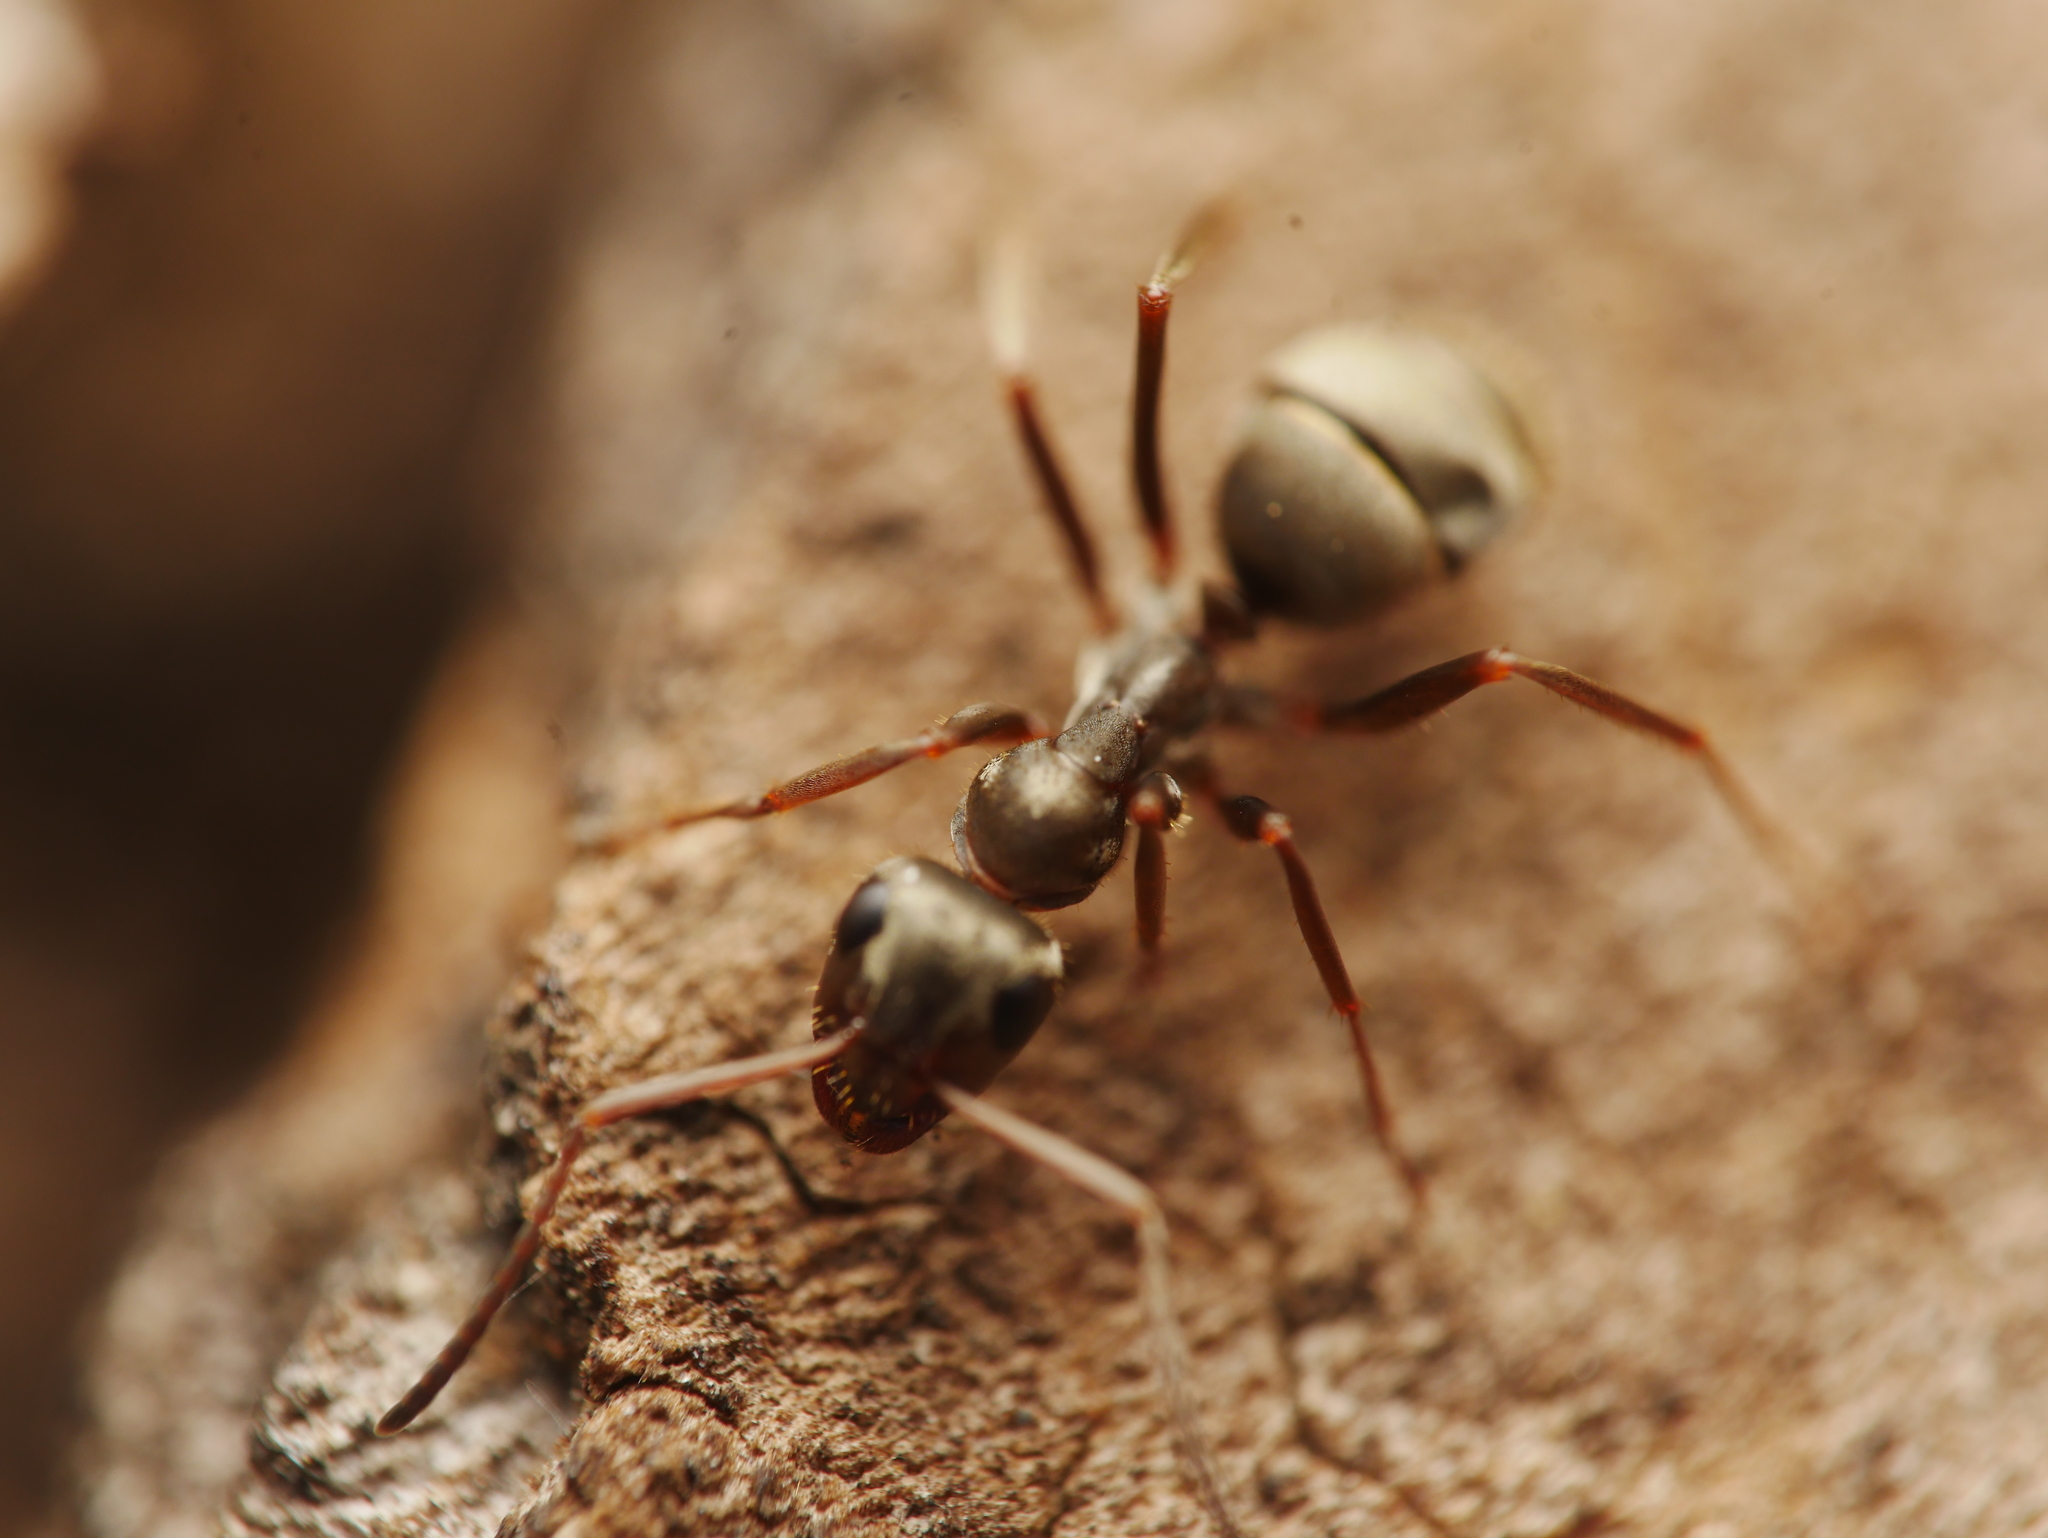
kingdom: Animalia
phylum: Arthropoda
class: Insecta
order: Hymenoptera
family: Formicidae
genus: Formica
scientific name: Formica cinerea
